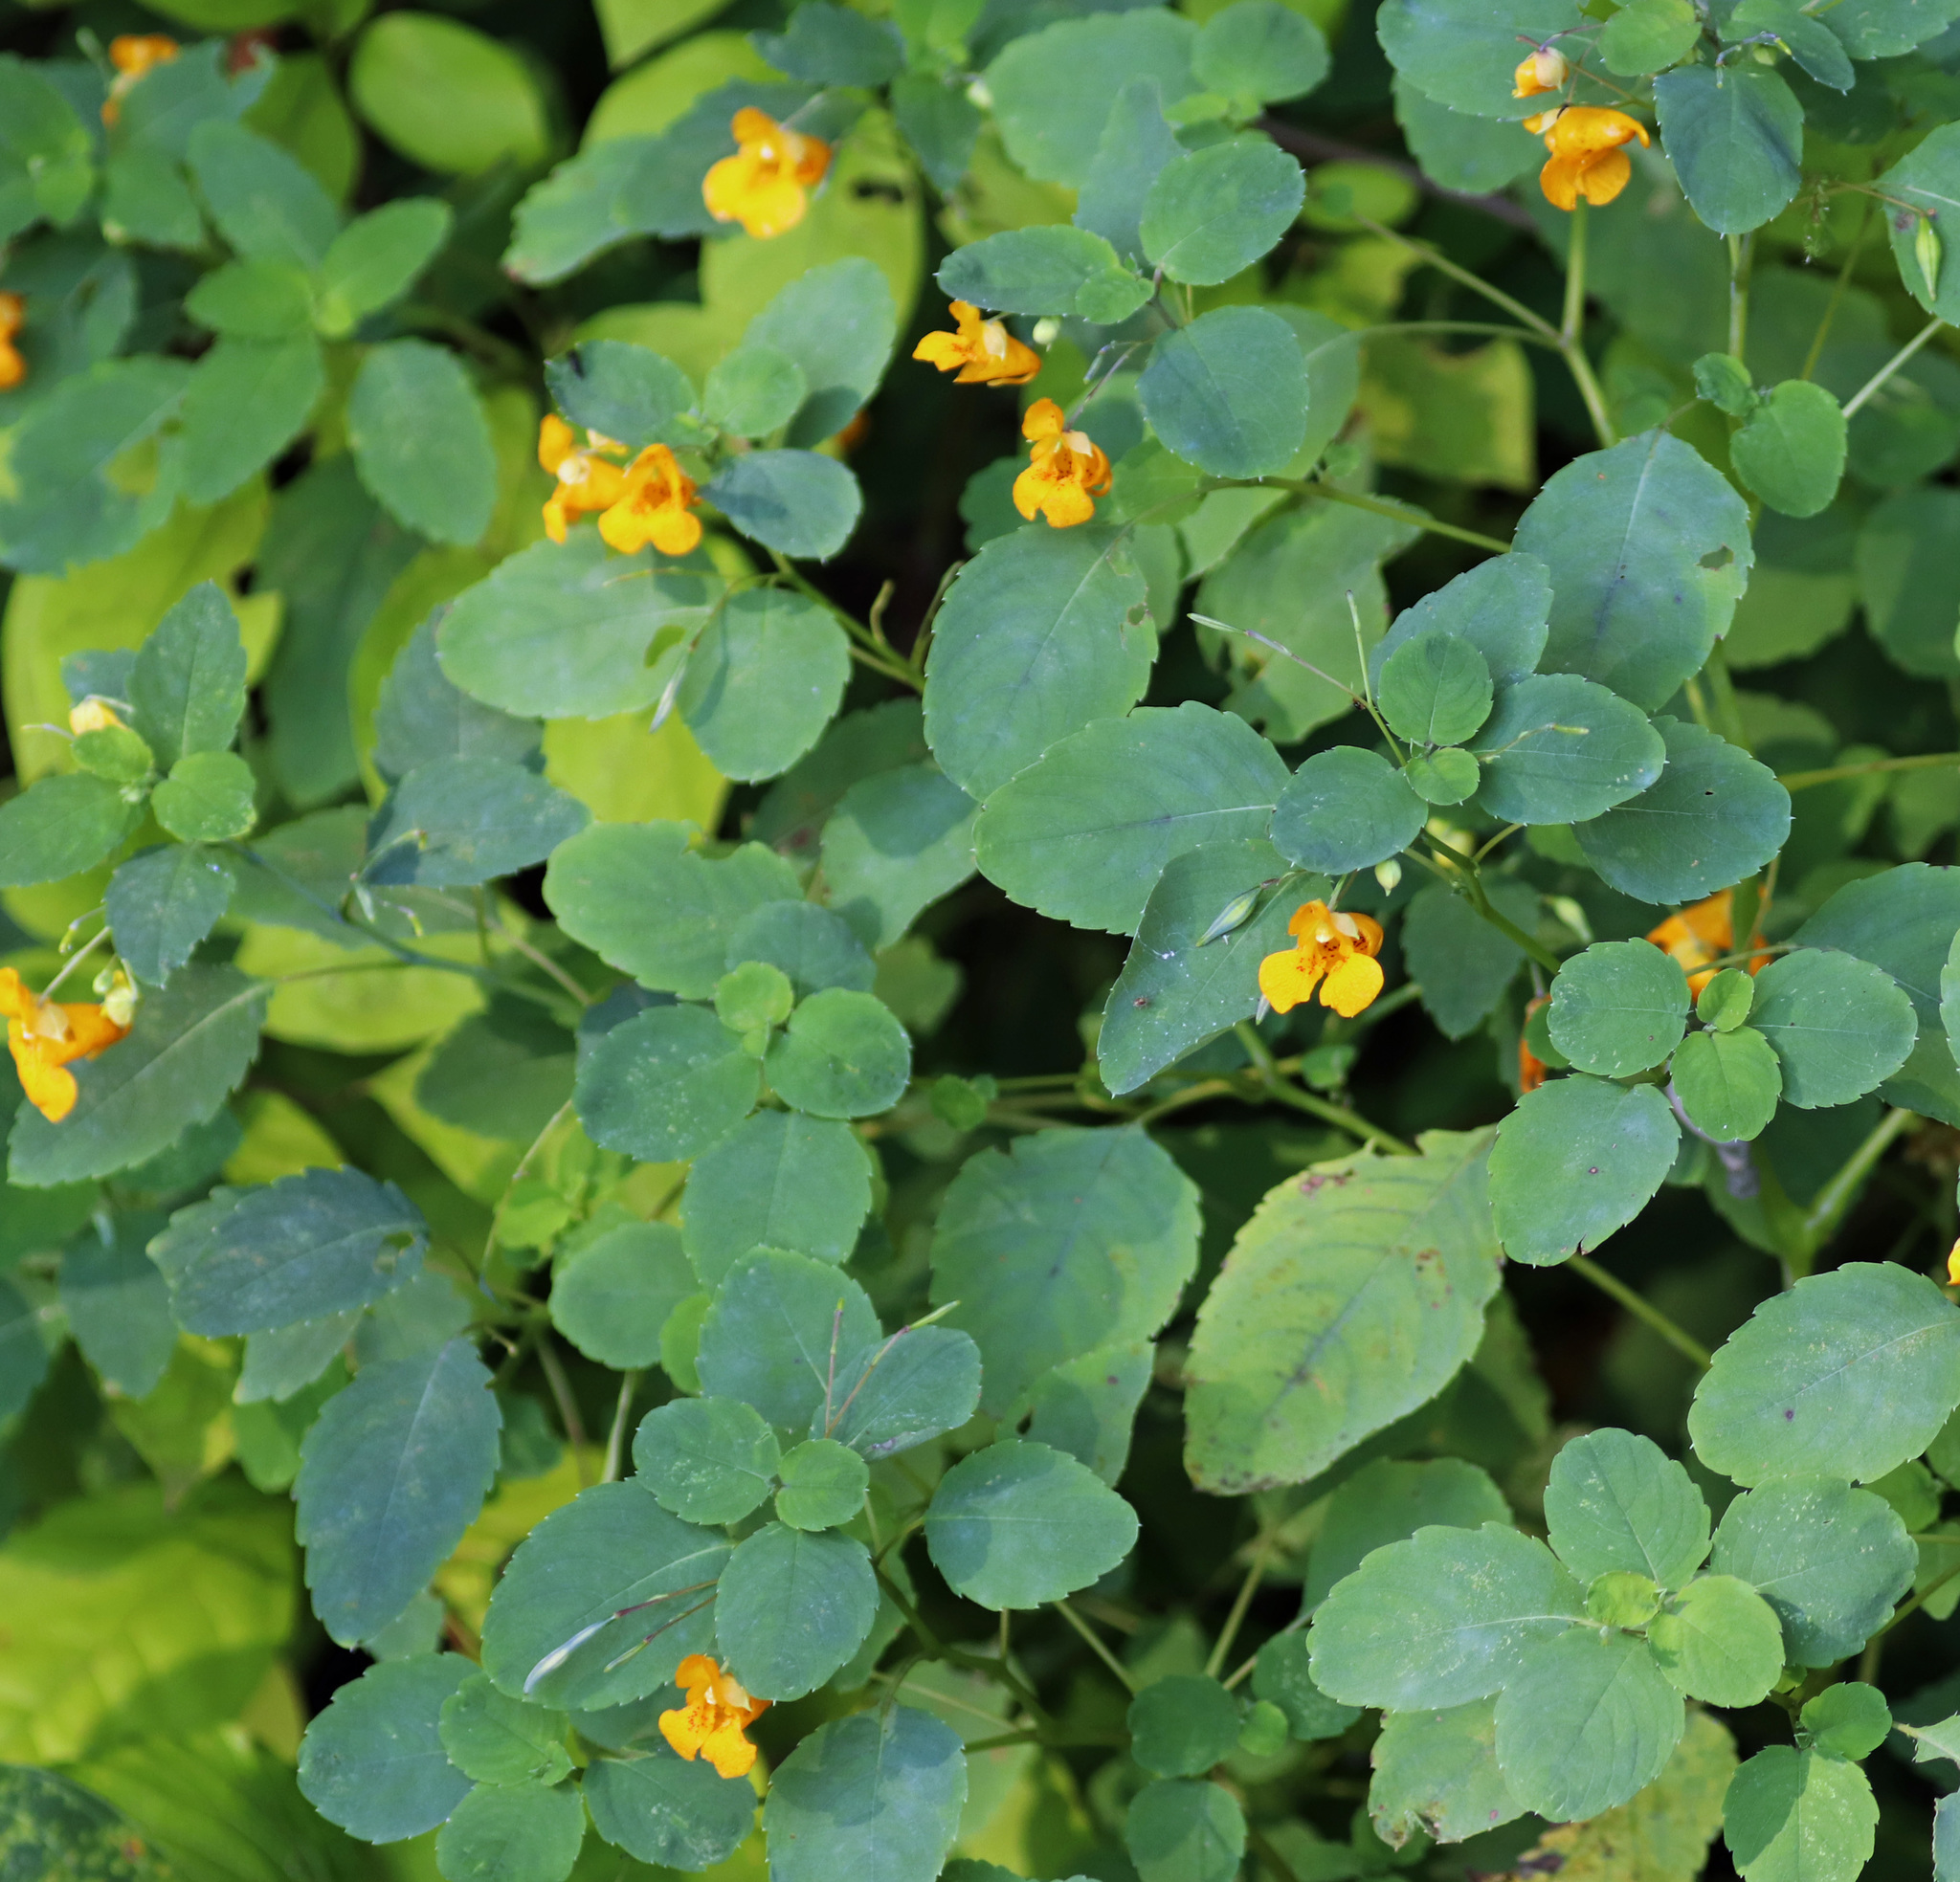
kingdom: Plantae
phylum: Tracheophyta
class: Magnoliopsida
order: Ericales
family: Balsaminaceae
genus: Impatiens
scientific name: Impatiens capensis
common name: Orange balsam
